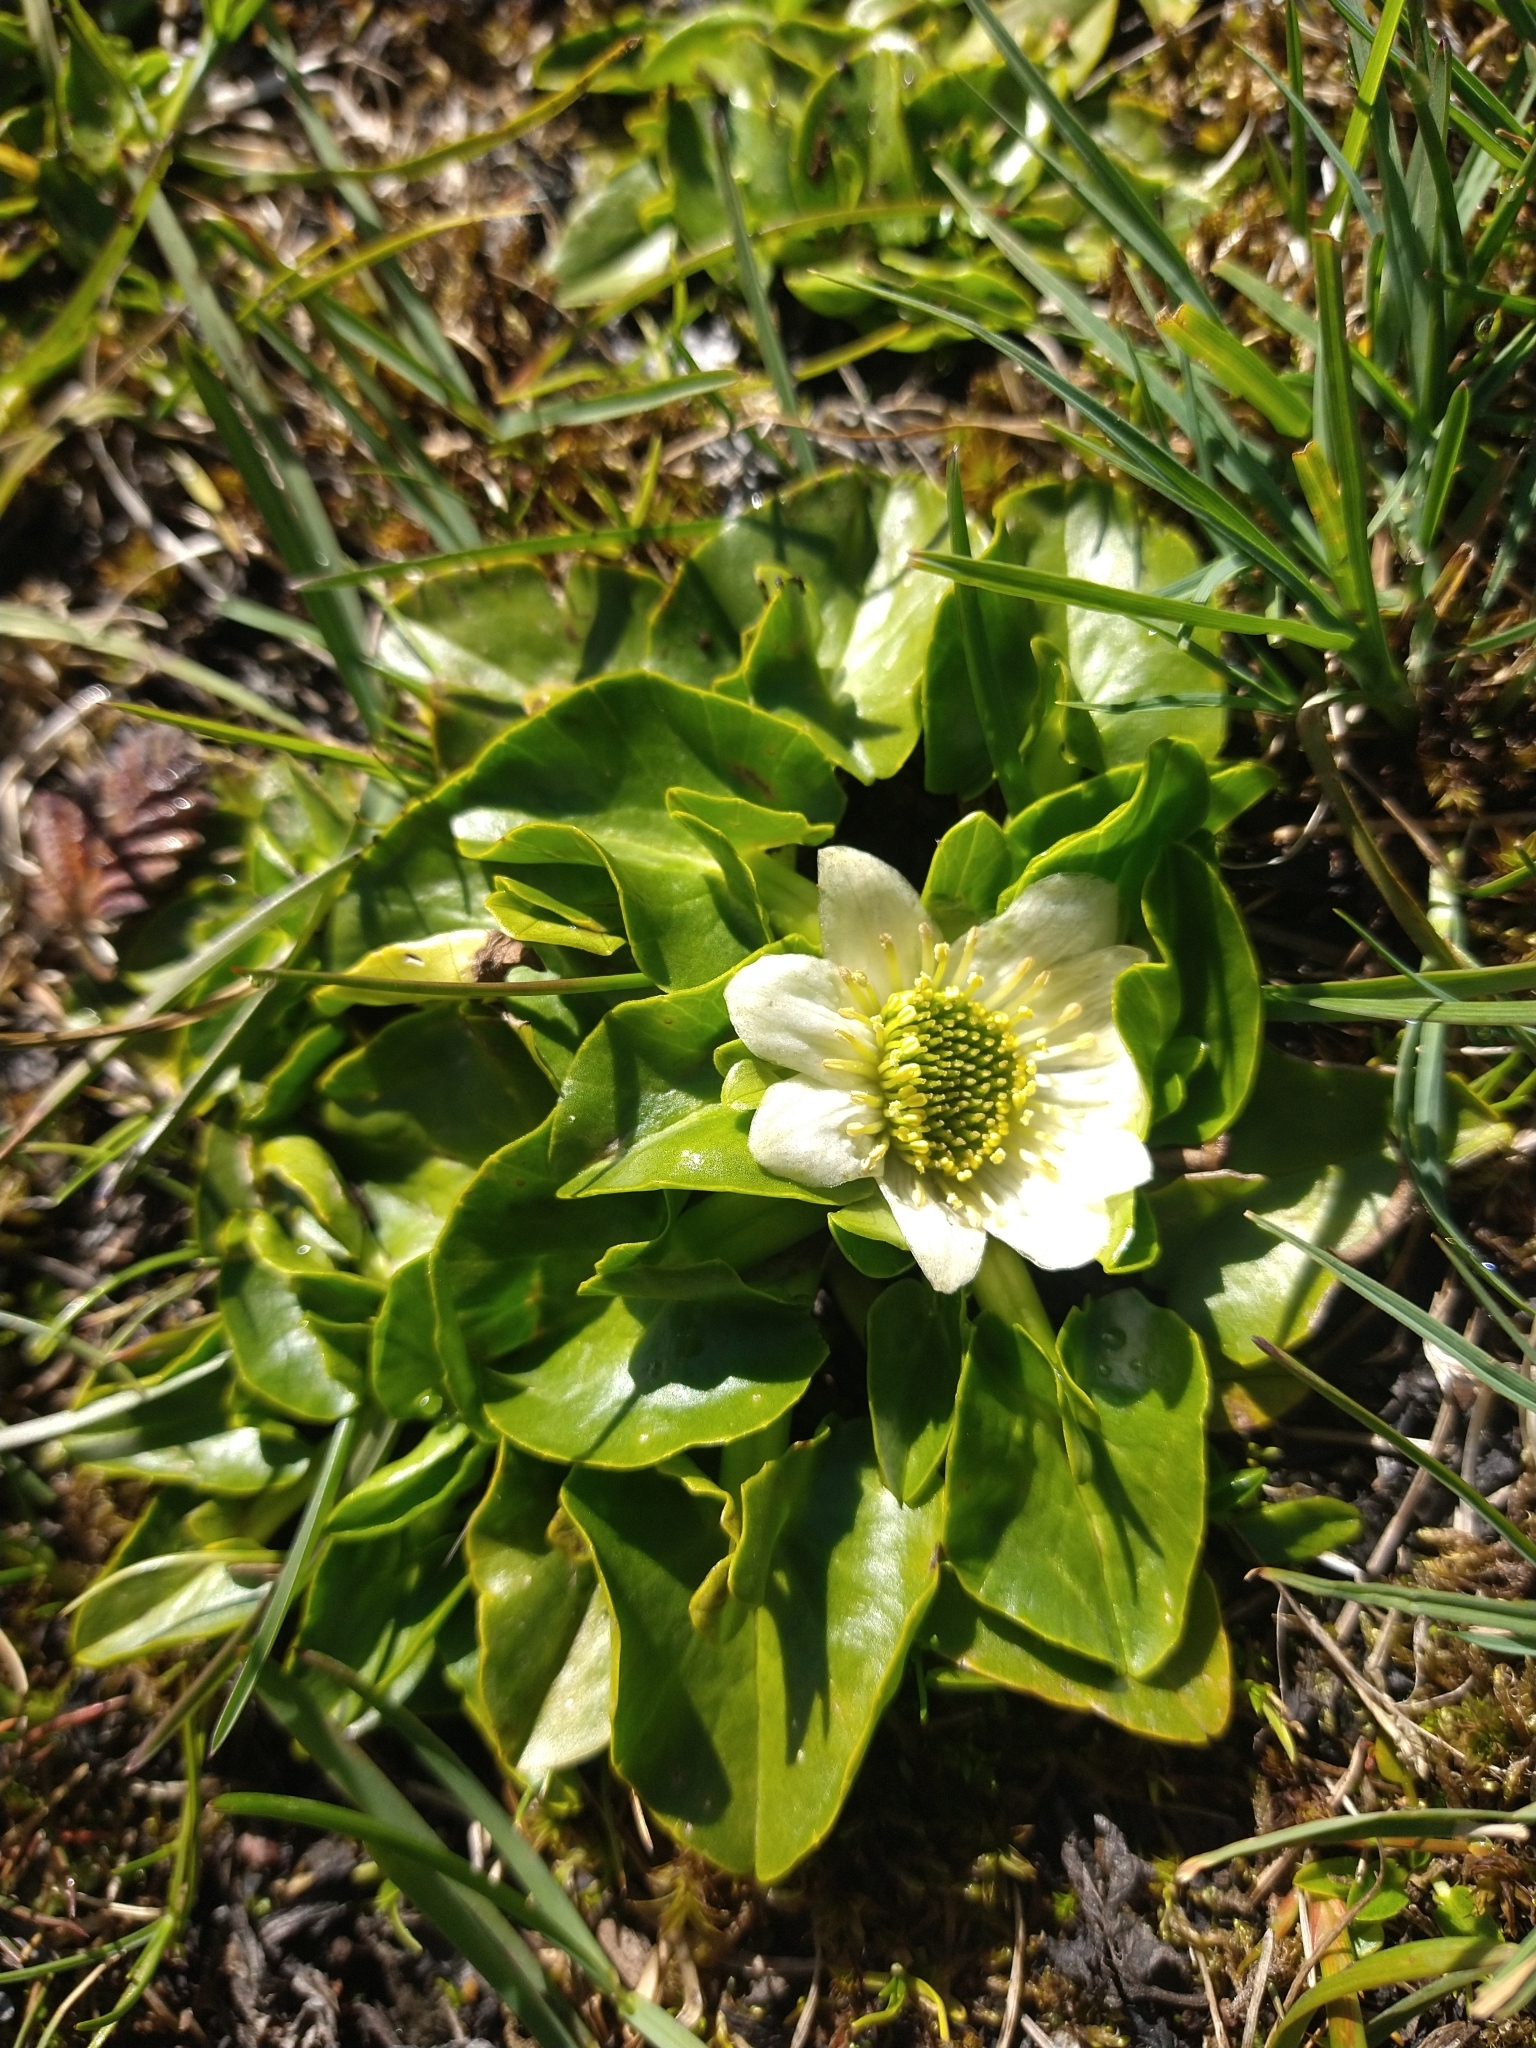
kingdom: Plantae
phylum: Tracheophyta
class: Magnoliopsida
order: Ranunculales
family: Ranunculaceae
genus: Caltha
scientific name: Caltha sagittata
